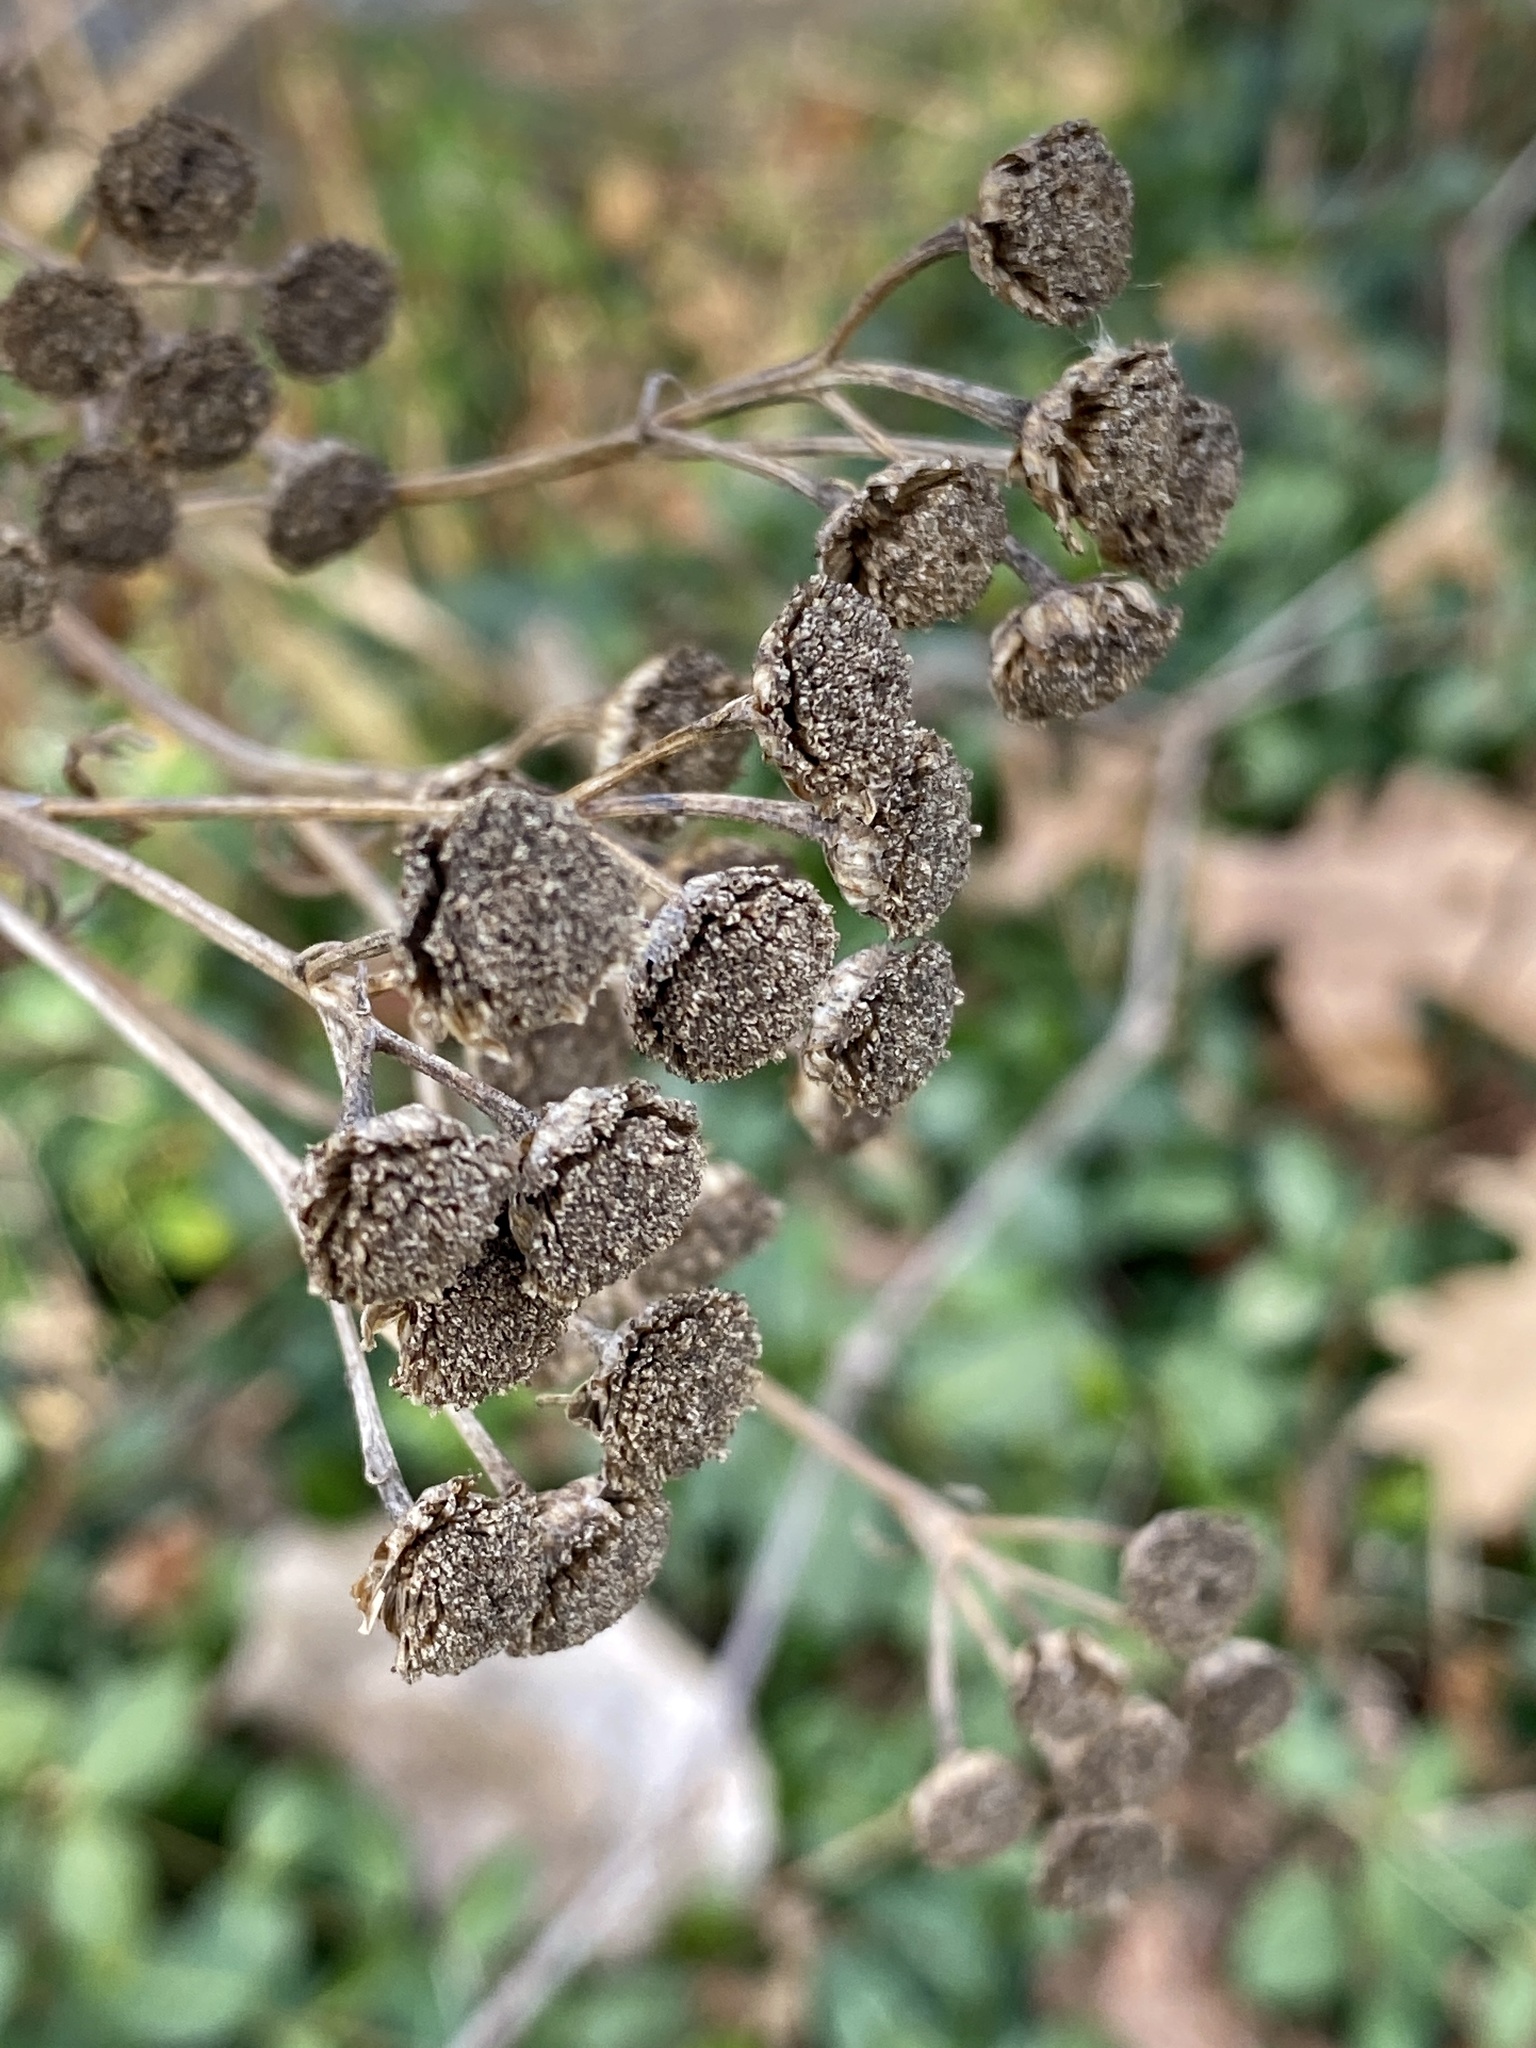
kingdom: Plantae
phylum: Tracheophyta
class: Magnoliopsida
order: Asterales
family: Asteraceae
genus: Tanacetum
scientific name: Tanacetum vulgare
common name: Common tansy
